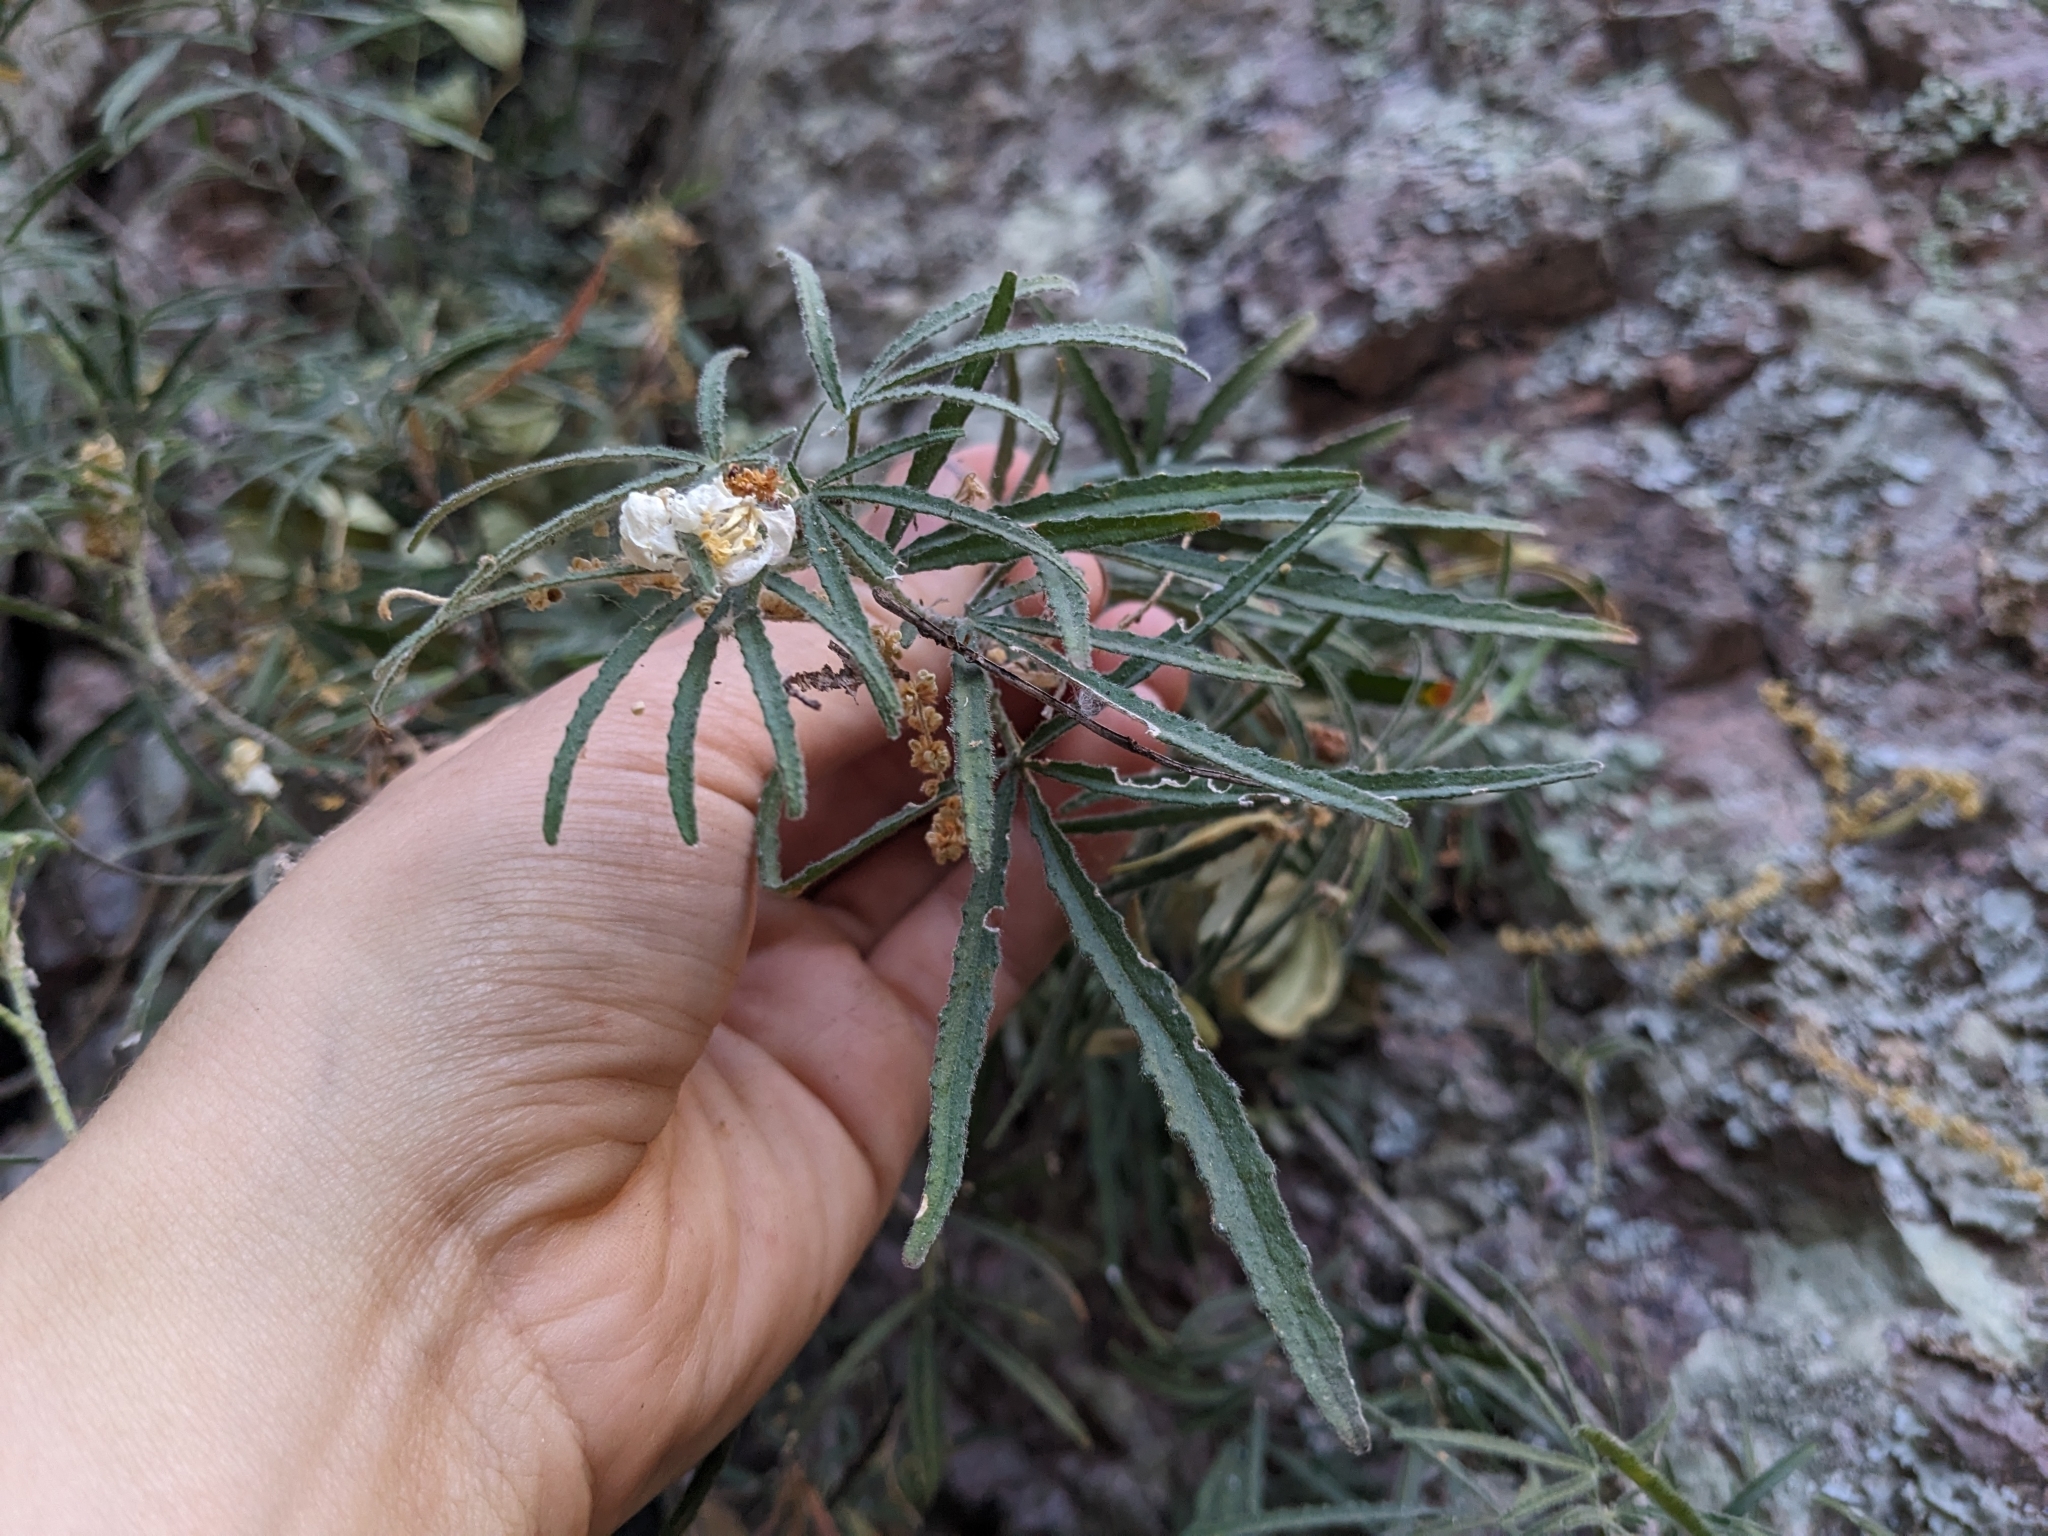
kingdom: Plantae
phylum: Tracheophyta
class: Magnoliopsida
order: Sapindales
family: Rutaceae
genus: Choisya
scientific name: Choisya dumosa
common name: Mexican-orange
